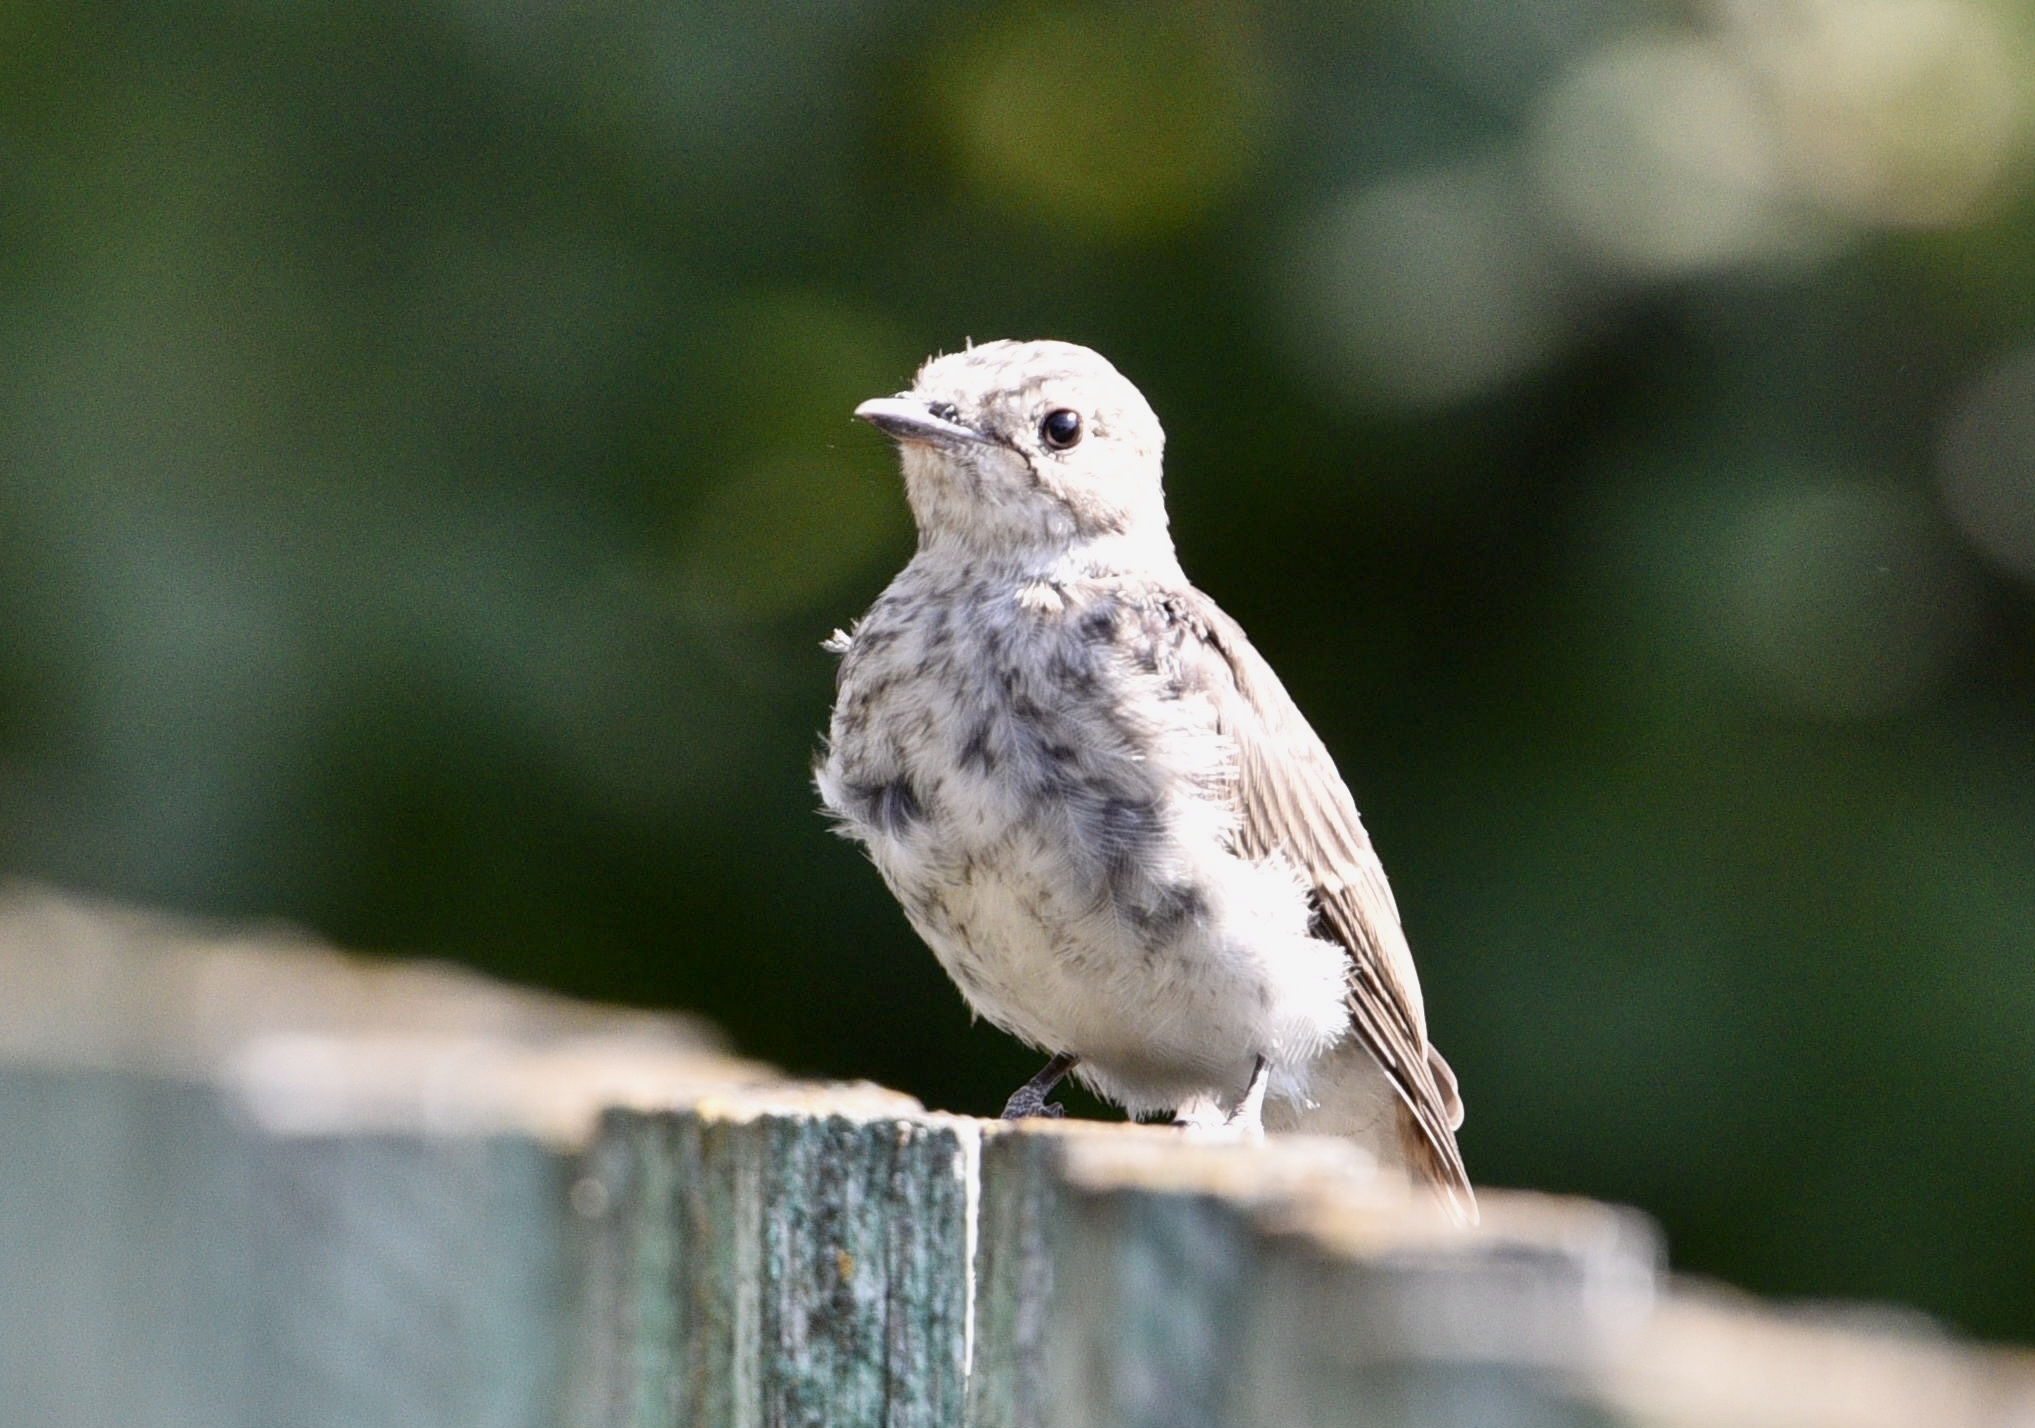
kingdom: Animalia
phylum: Chordata
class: Aves
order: Passeriformes
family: Muscicapidae
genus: Muscicapa
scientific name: Muscicapa striata
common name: Spotted flycatcher
